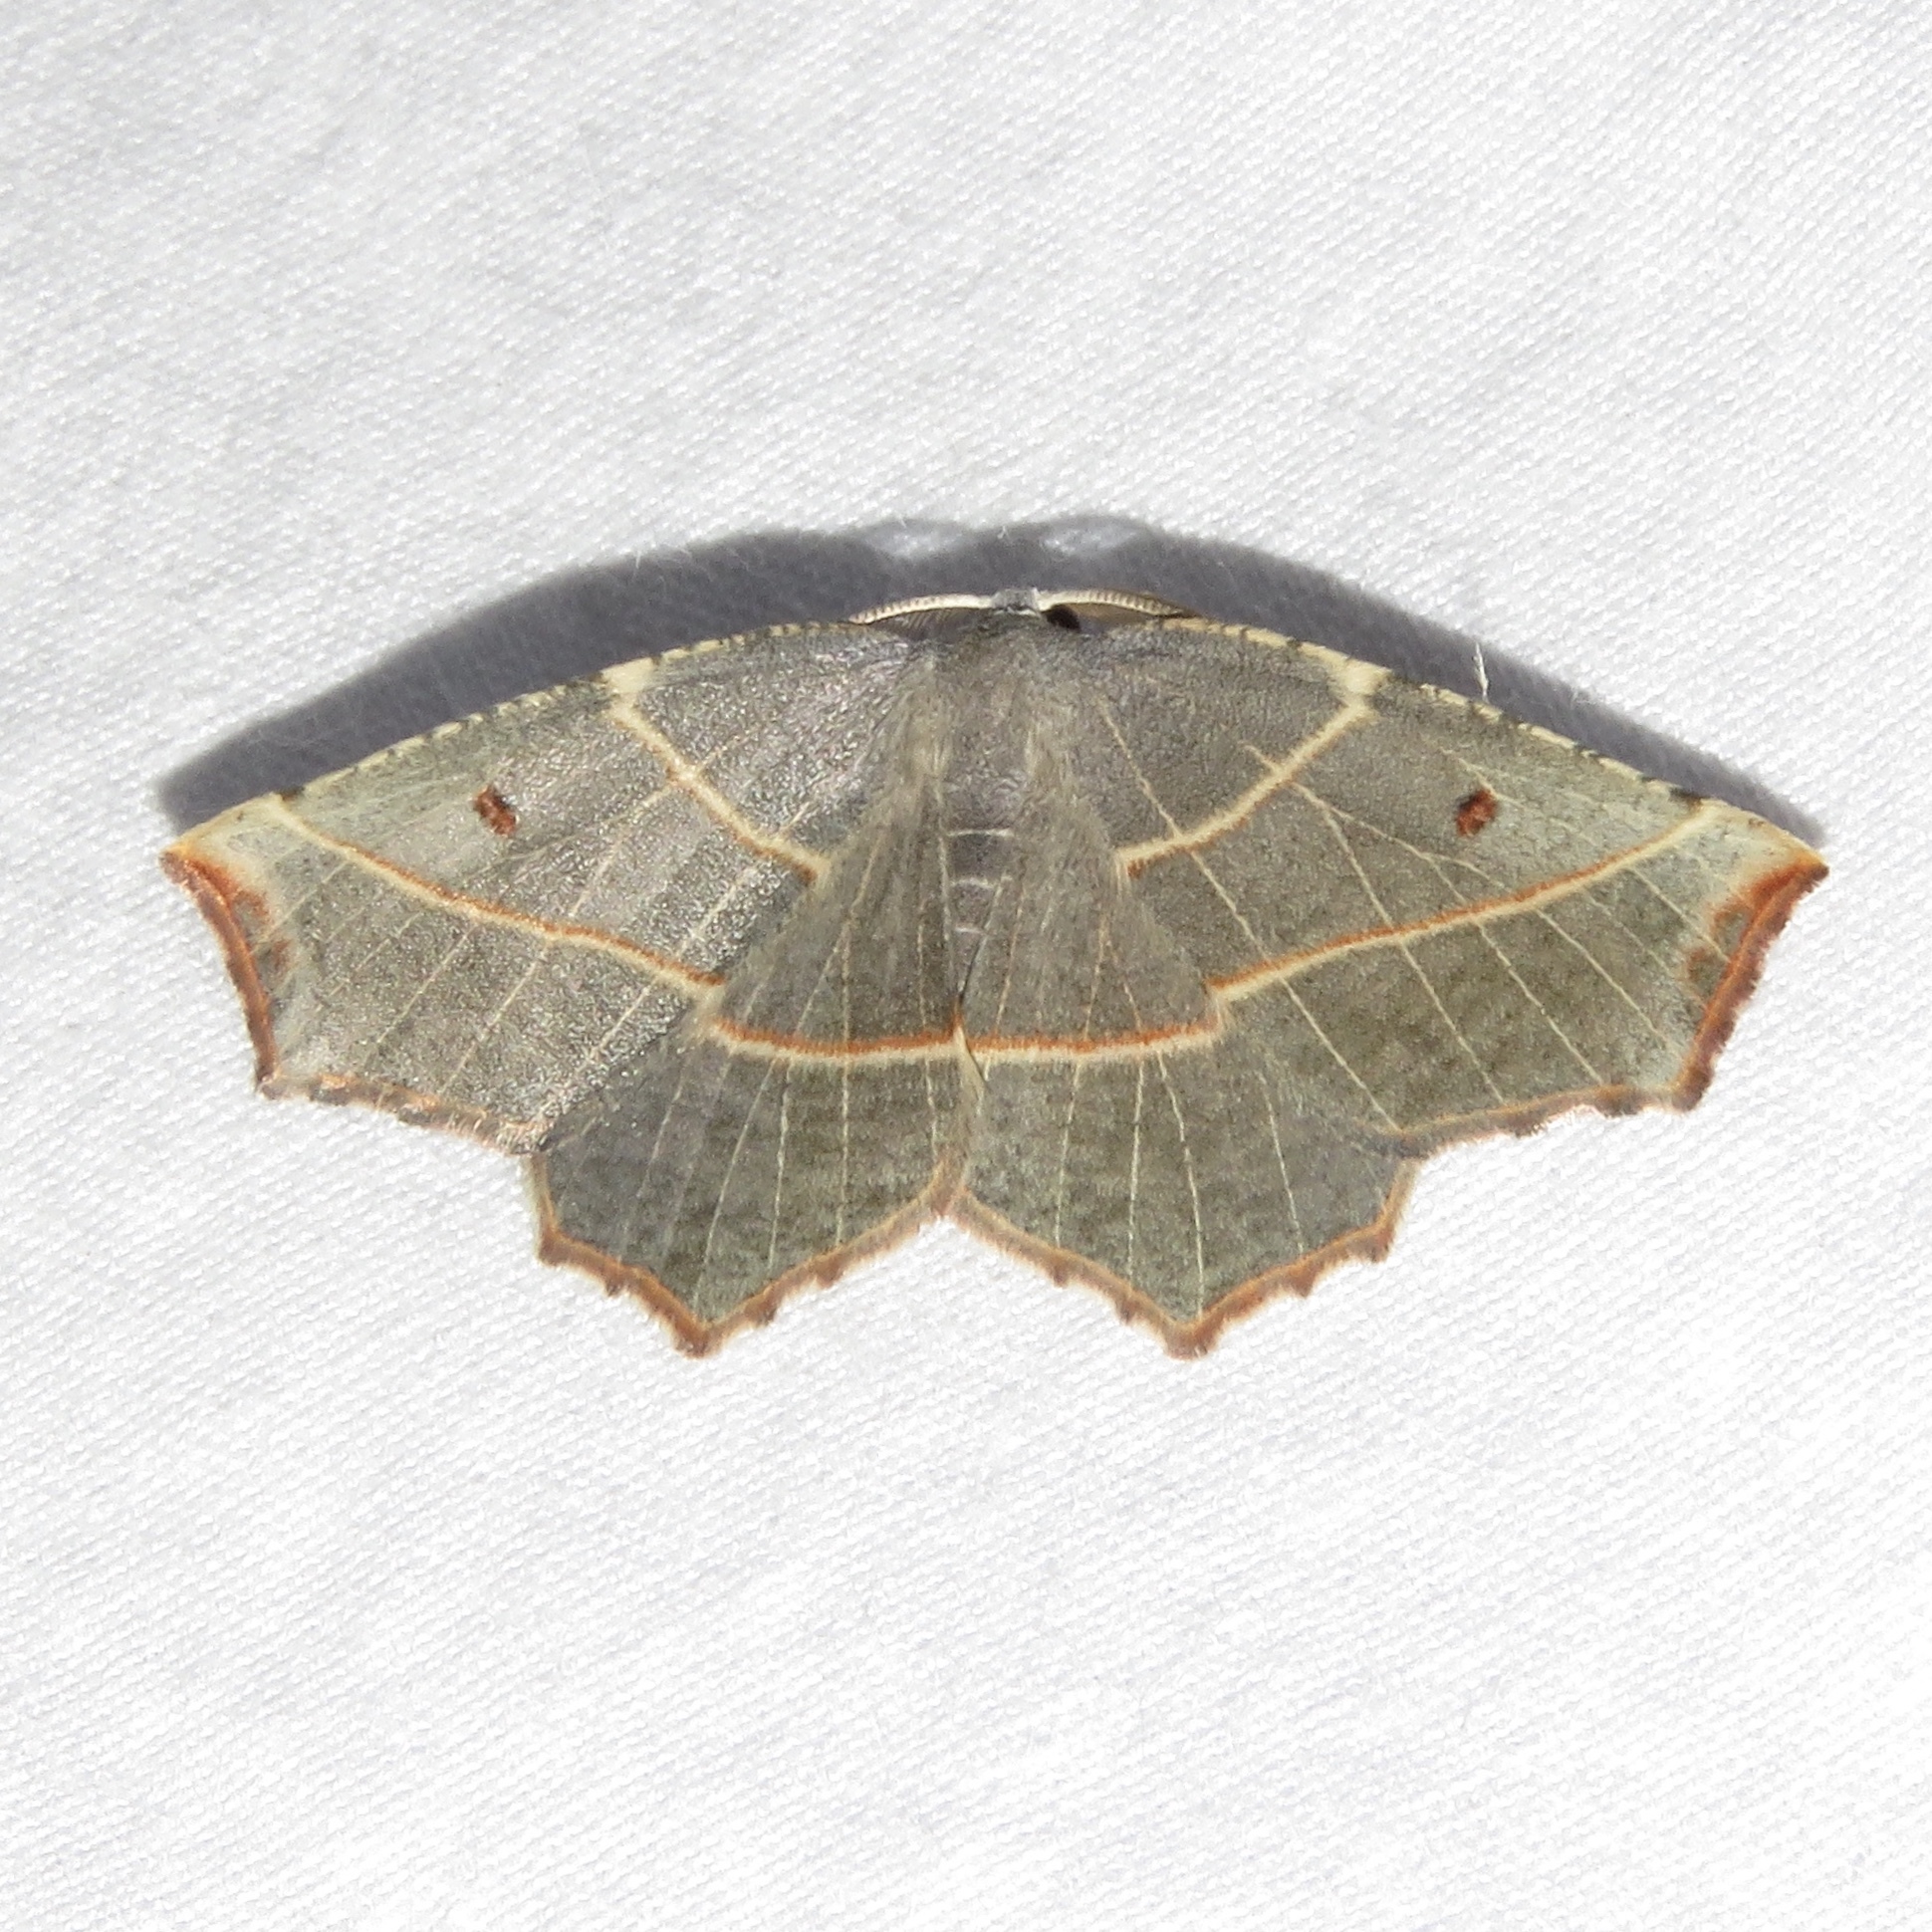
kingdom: Animalia
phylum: Arthropoda
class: Insecta
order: Lepidoptera
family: Geometridae
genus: Metanema
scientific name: Metanema inatomaria
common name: Pale metanema
